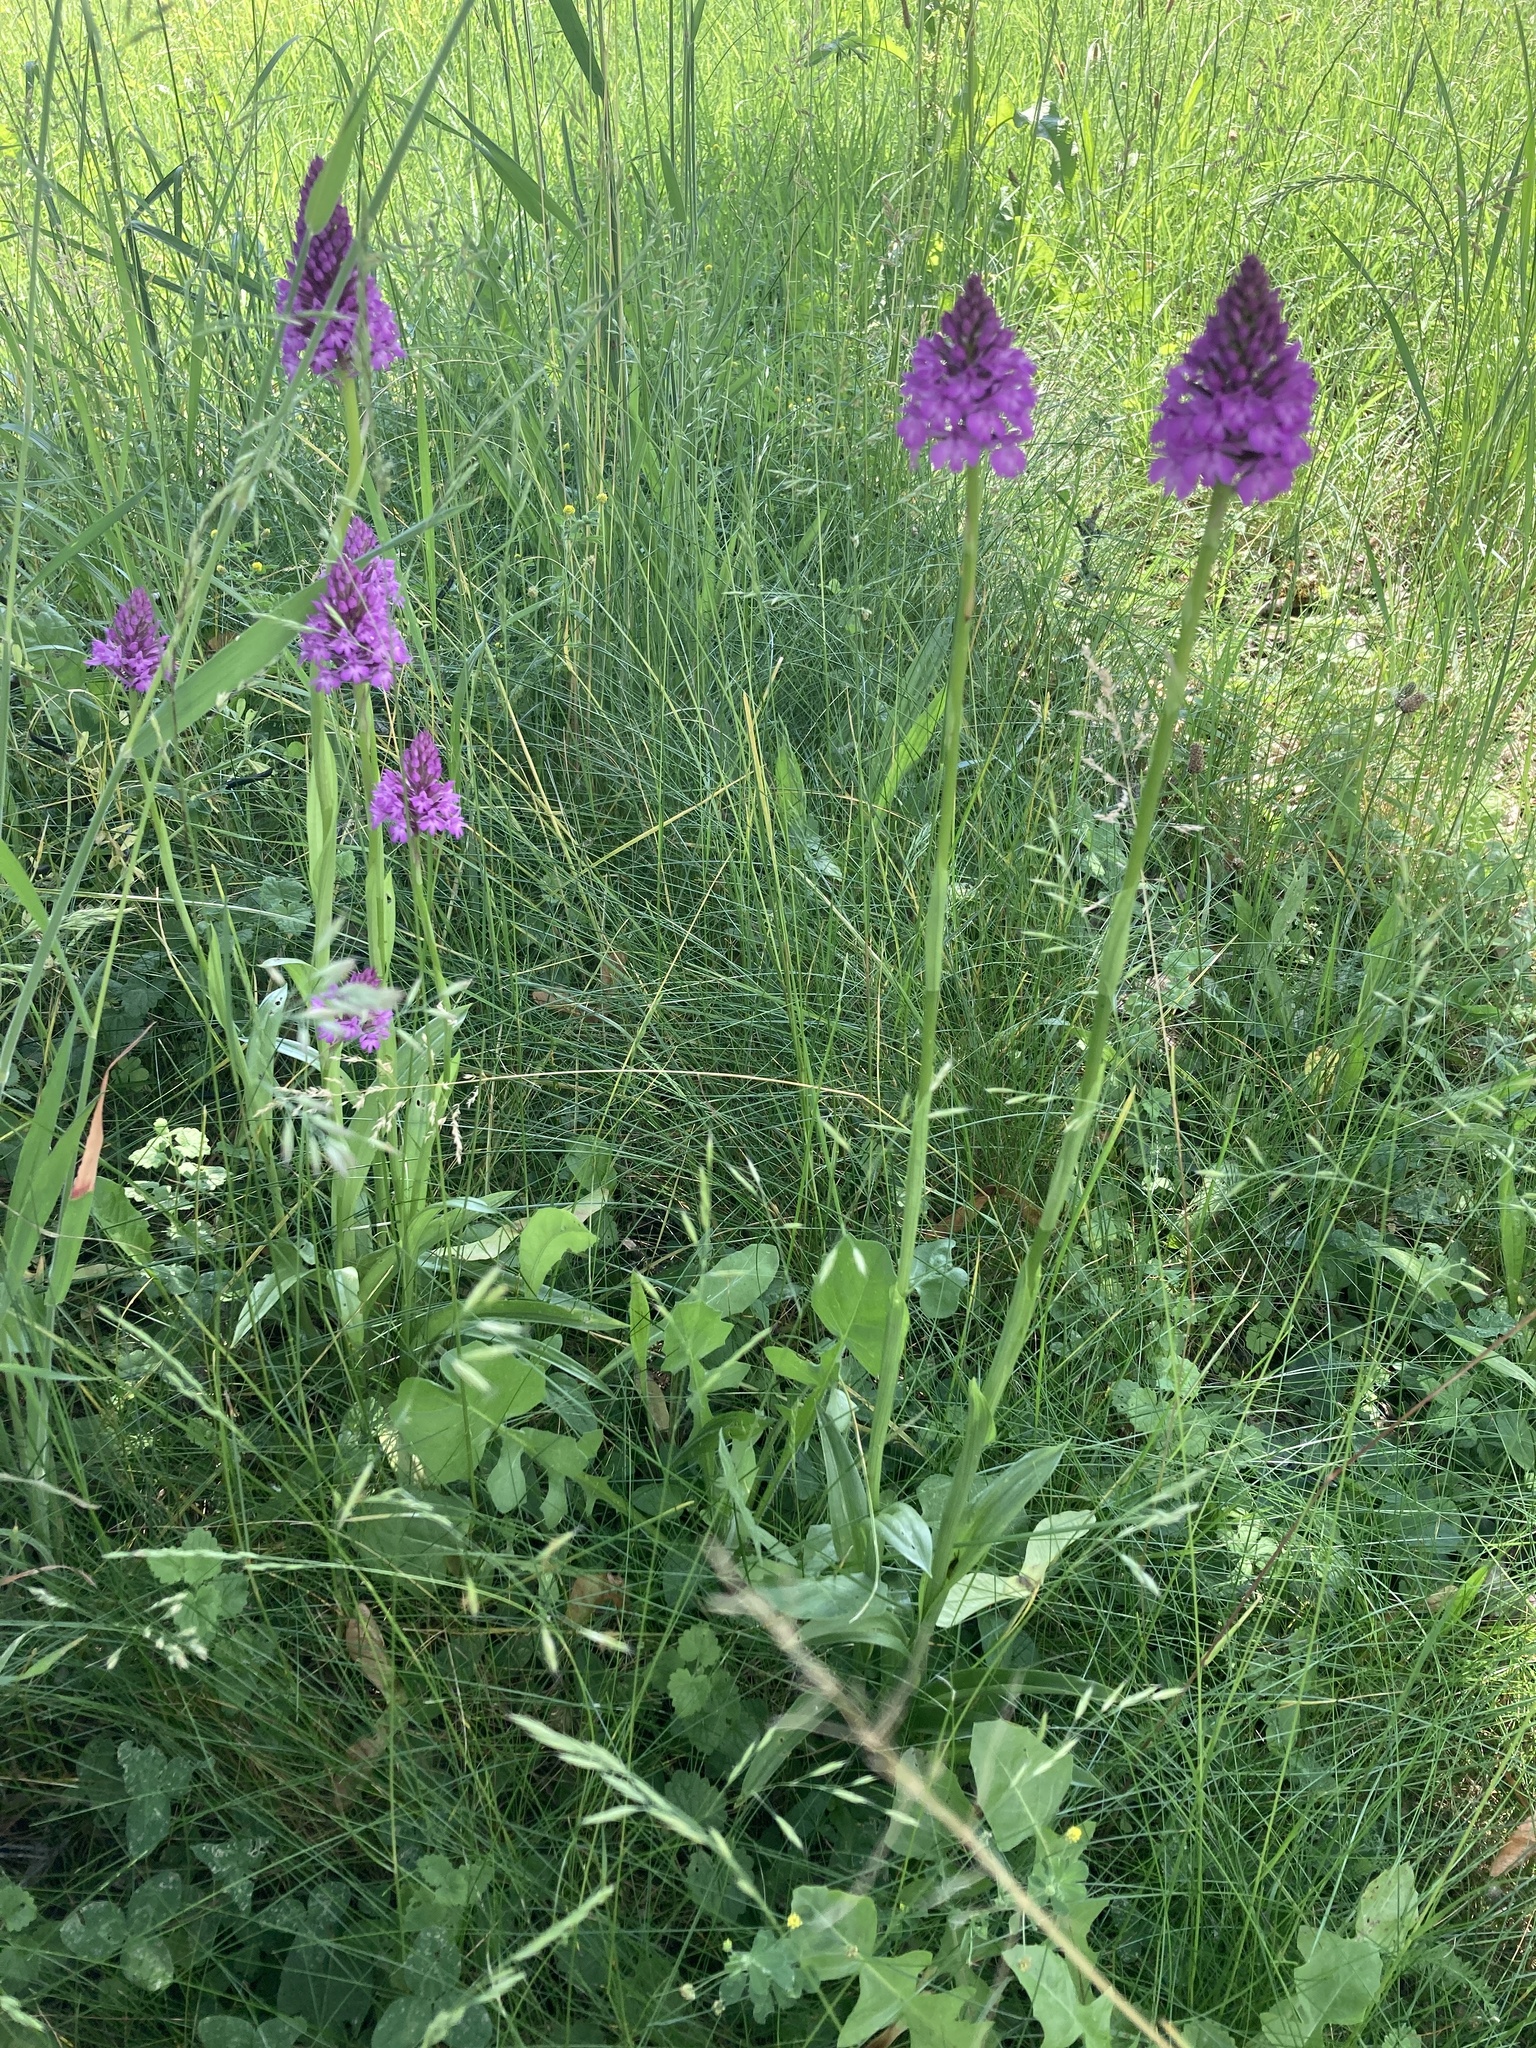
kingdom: Plantae
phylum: Tracheophyta
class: Liliopsida
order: Asparagales
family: Orchidaceae
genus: Anacamptis
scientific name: Anacamptis pyramidalis
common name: Pyramidal orchid
